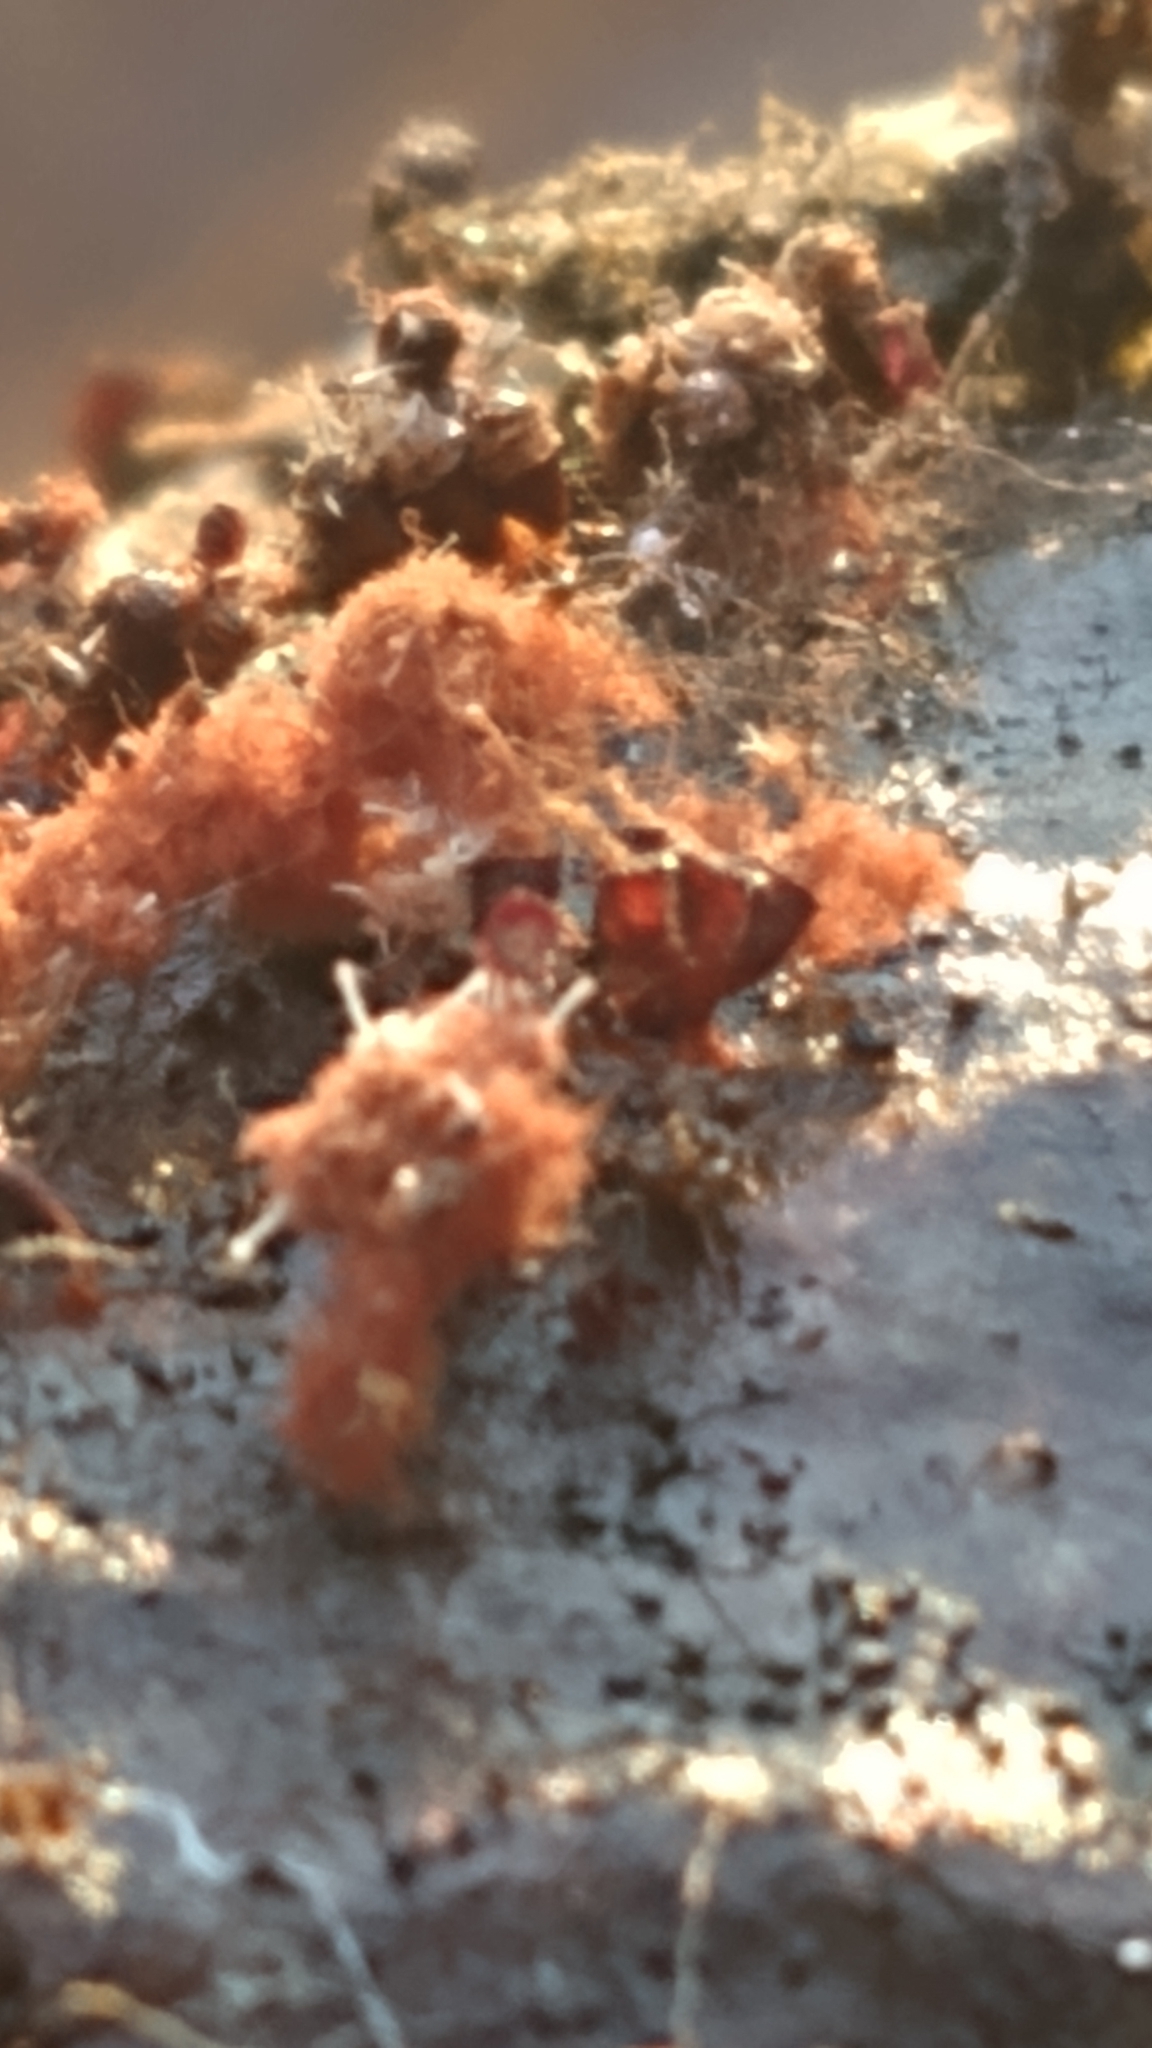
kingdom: Fungi
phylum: Ascomycota
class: Sordariomycetes
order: Hypocreales
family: Ophiocordycipitaceae
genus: Polycephalomyces
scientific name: Polycephalomyces tomentosus
